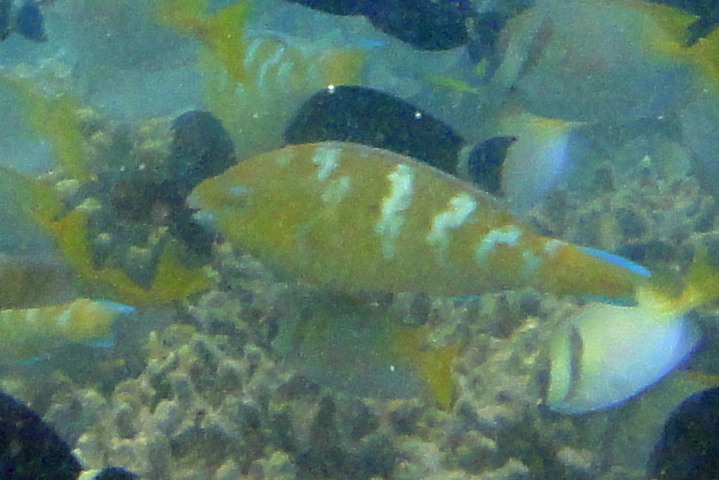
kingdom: Animalia
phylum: Chordata
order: Perciformes
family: Scaridae
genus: Scarus
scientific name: Scarus ghobban
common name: Blue-barred parrotfish
